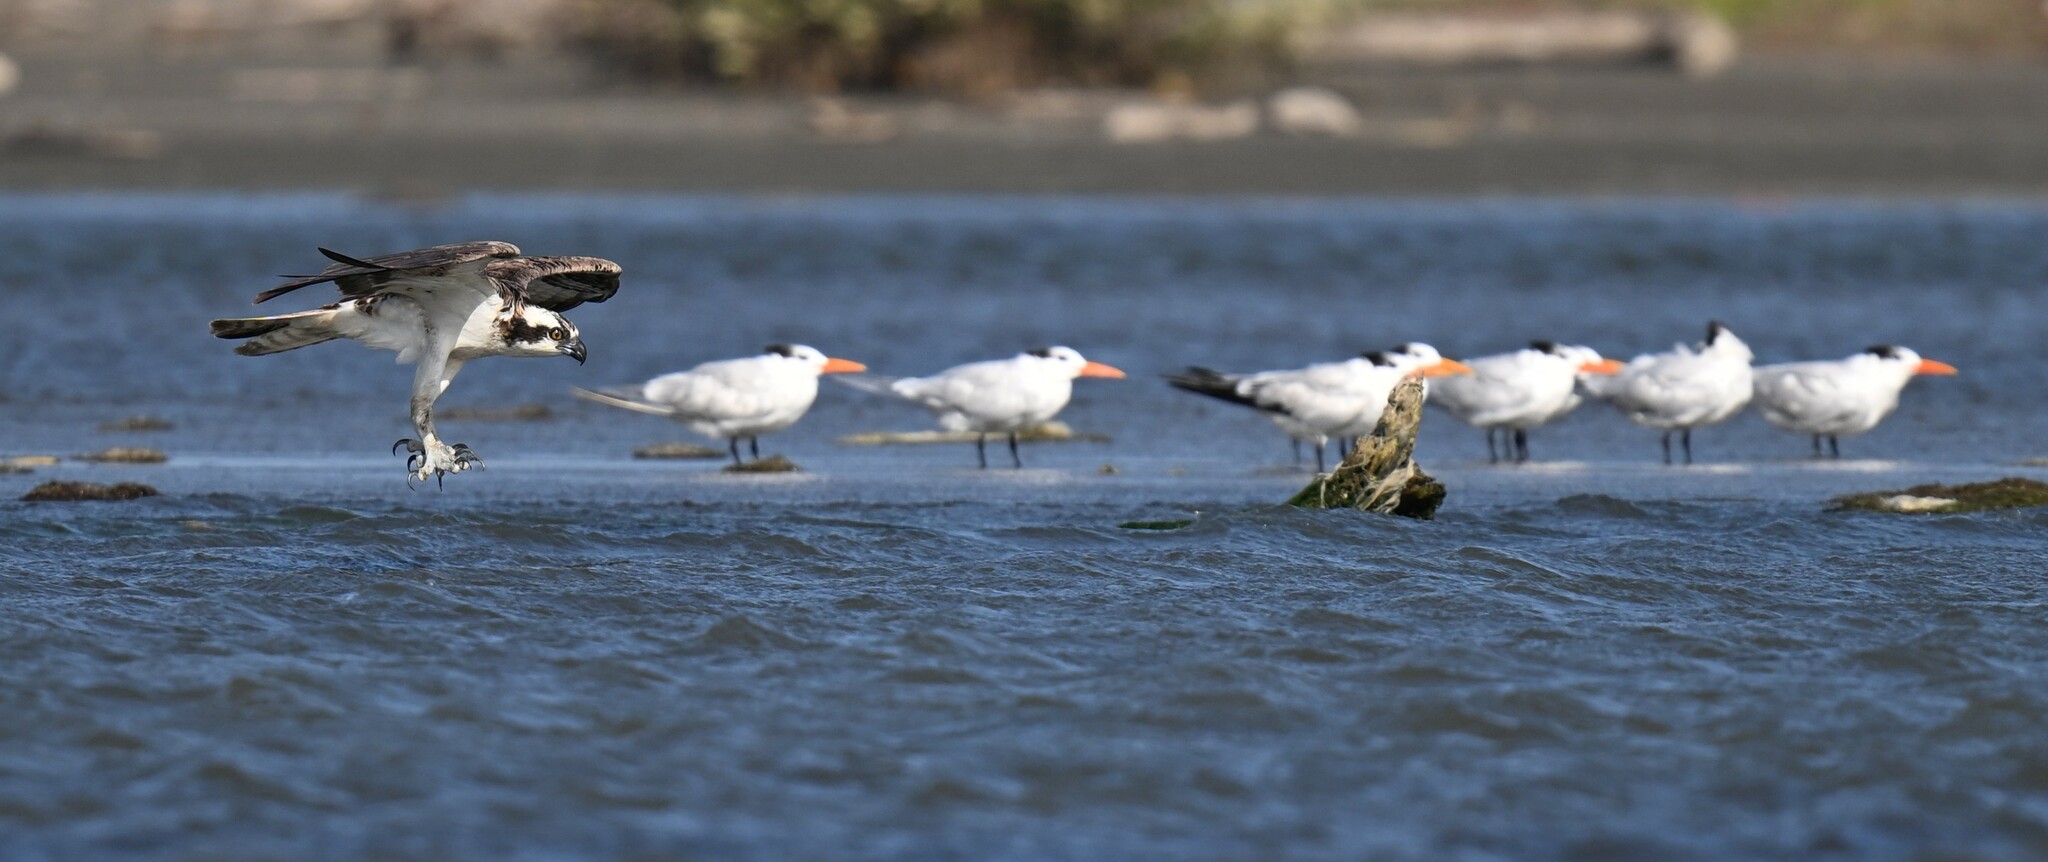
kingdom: Animalia
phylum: Chordata
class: Aves
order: Accipitriformes
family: Pandionidae
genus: Pandion
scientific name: Pandion haliaetus
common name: Osprey
